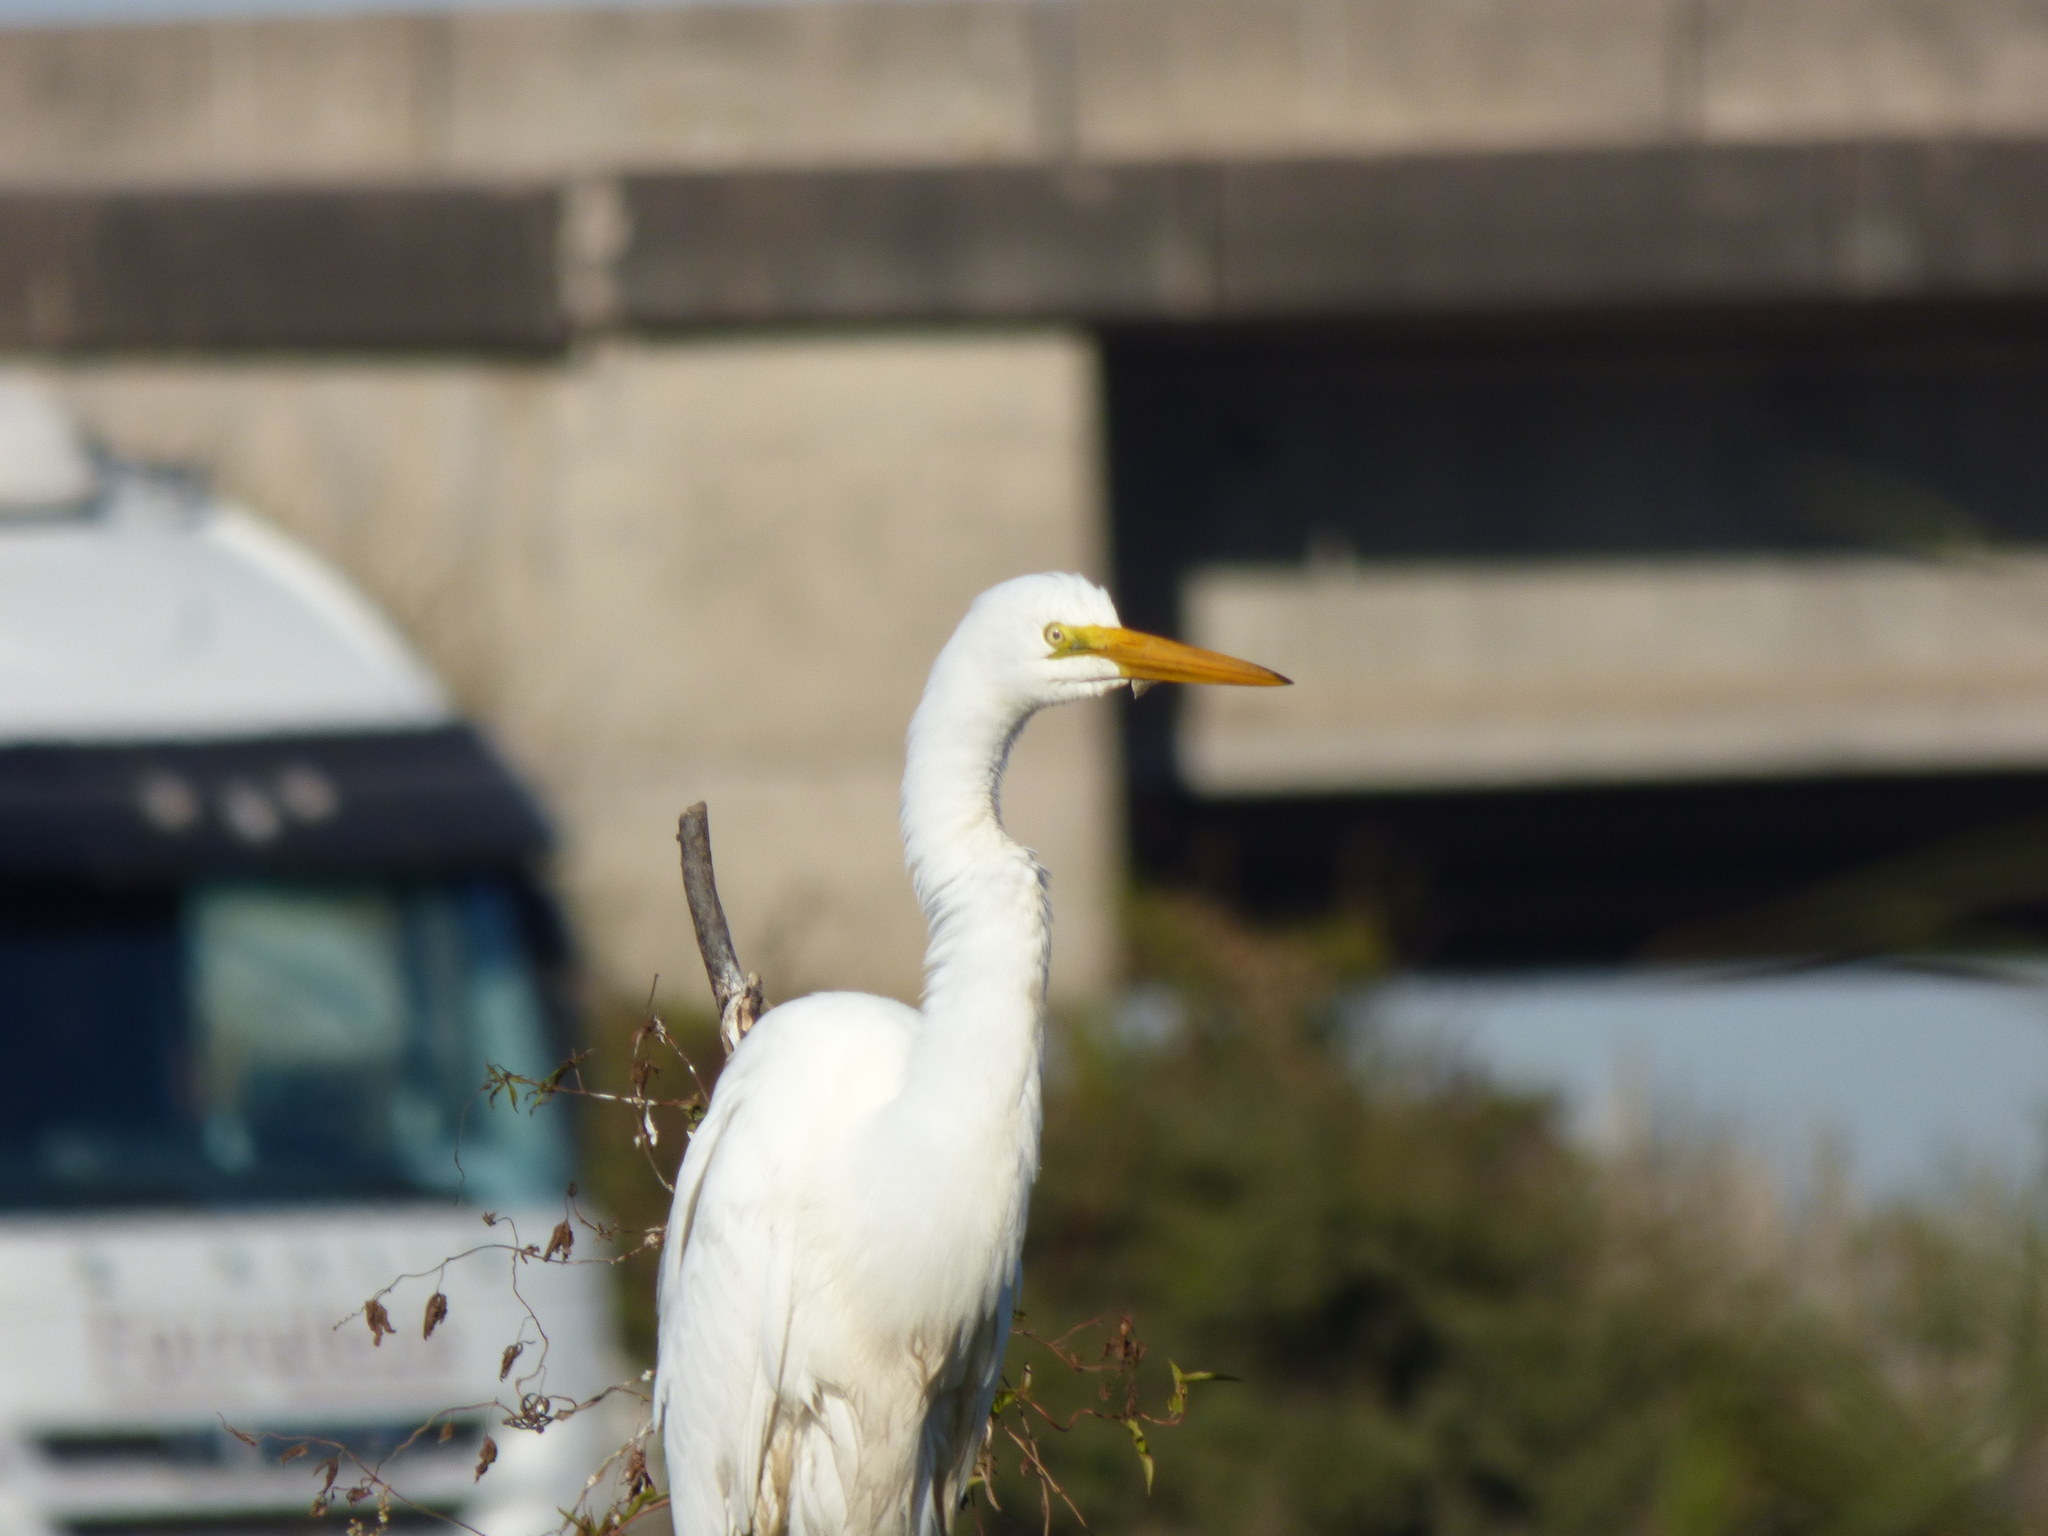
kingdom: Animalia
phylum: Chordata
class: Aves
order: Pelecaniformes
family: Ardeidae
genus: Ardea
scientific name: Ardea alba
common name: Great egret
